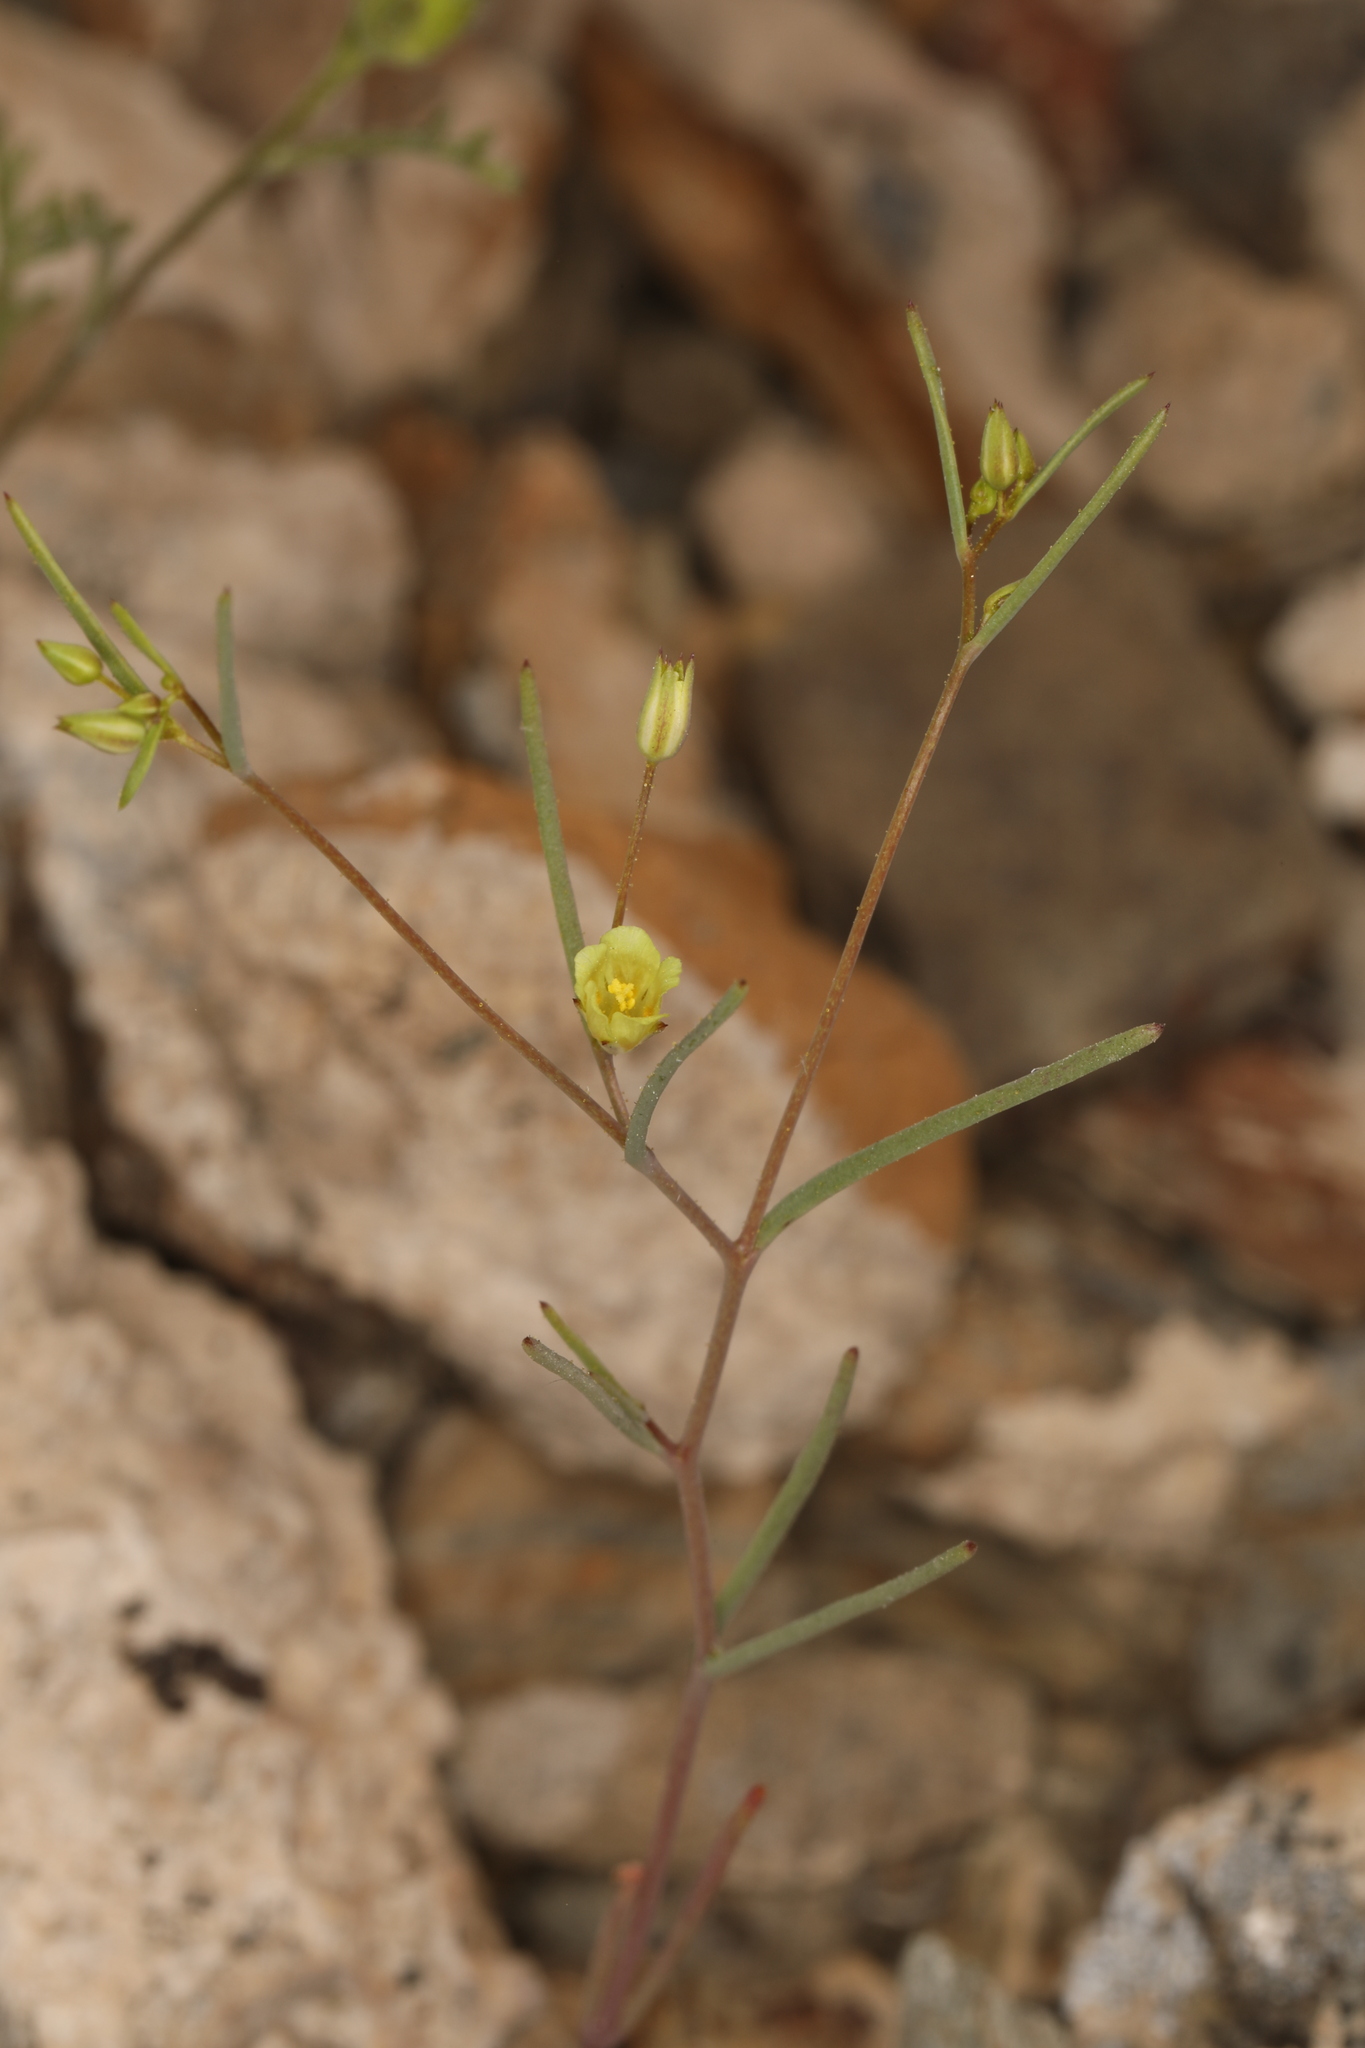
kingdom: Plantae
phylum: Tracheophyta
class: Magnoliopsida
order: Ericales
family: Polemoniaceae
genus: Linanthus
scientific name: Linanthus filiformis
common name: Yellow gilia
